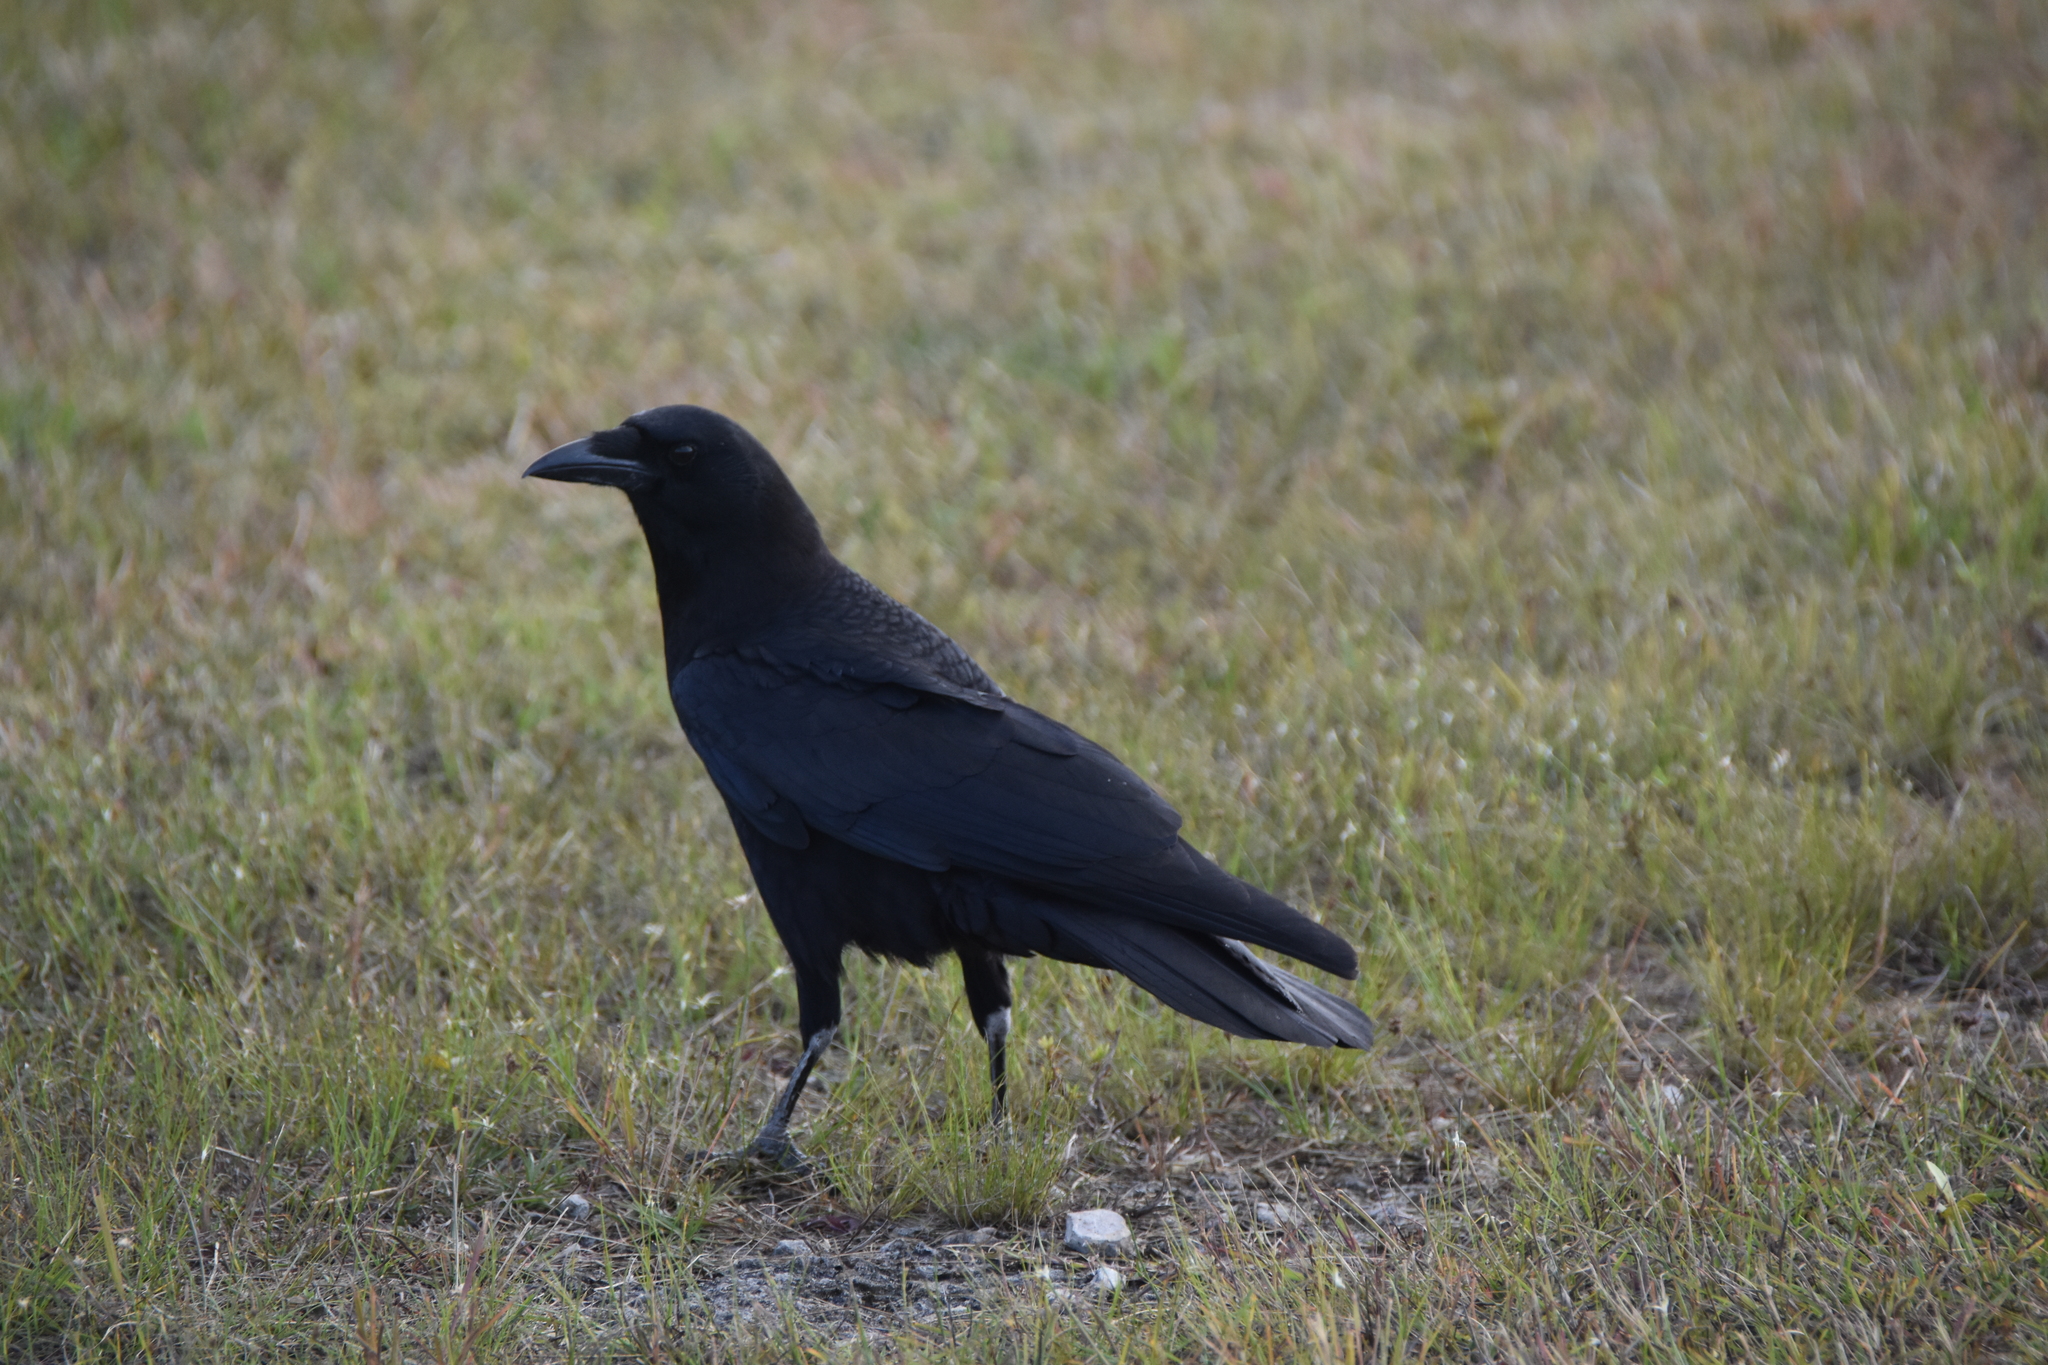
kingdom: Animalia
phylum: Chordata
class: Aves
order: Passeriformes
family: Corvidae
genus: Corvus
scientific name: Corvus brachyrhynchos
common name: American crow
